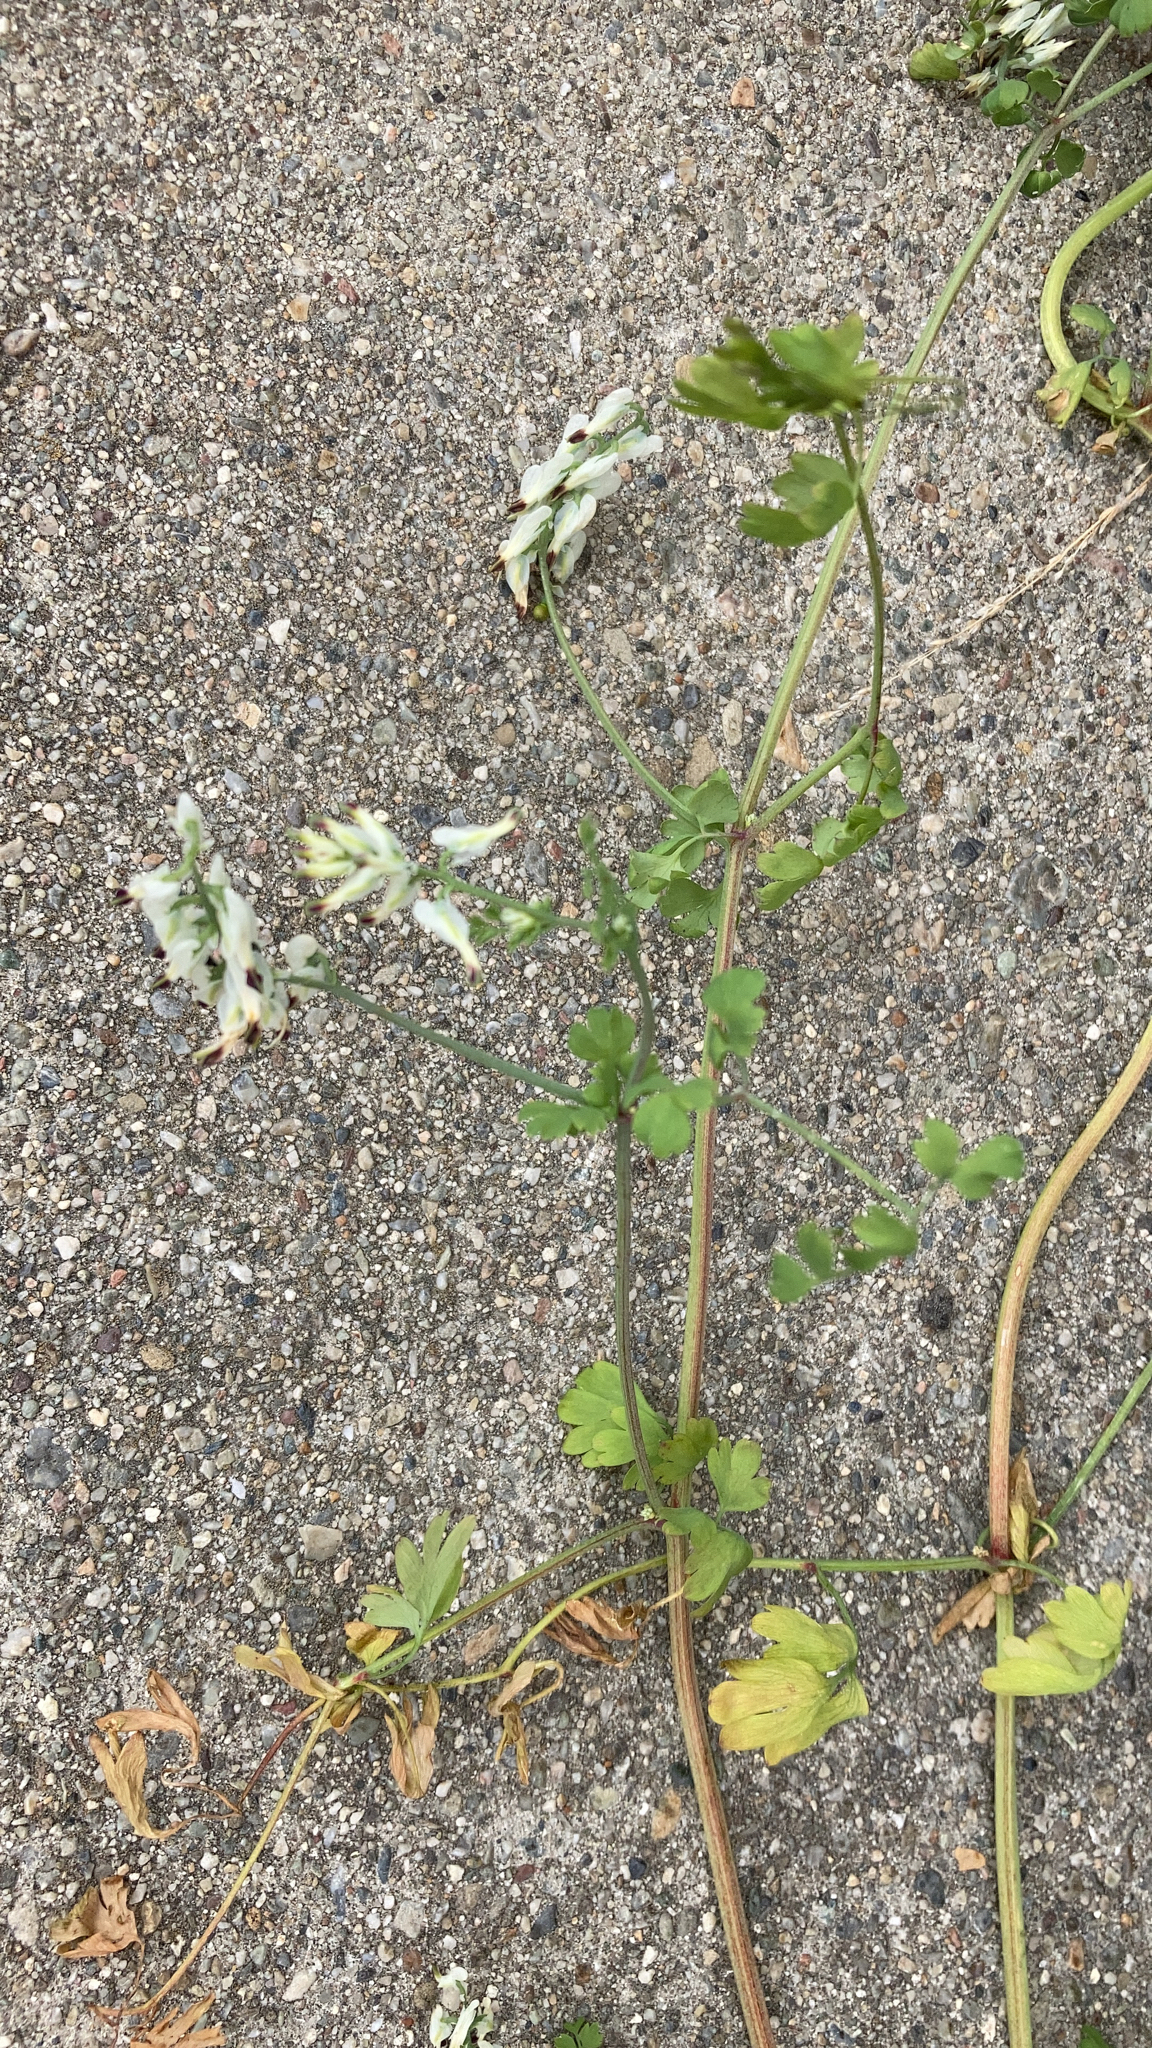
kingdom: Plantae
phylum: Tracheophyta
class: Magnoliopsida
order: Ranunculales
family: Papaveraceae
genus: Fumaria
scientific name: Fumaria capreolata
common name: White ramping-fumitory
